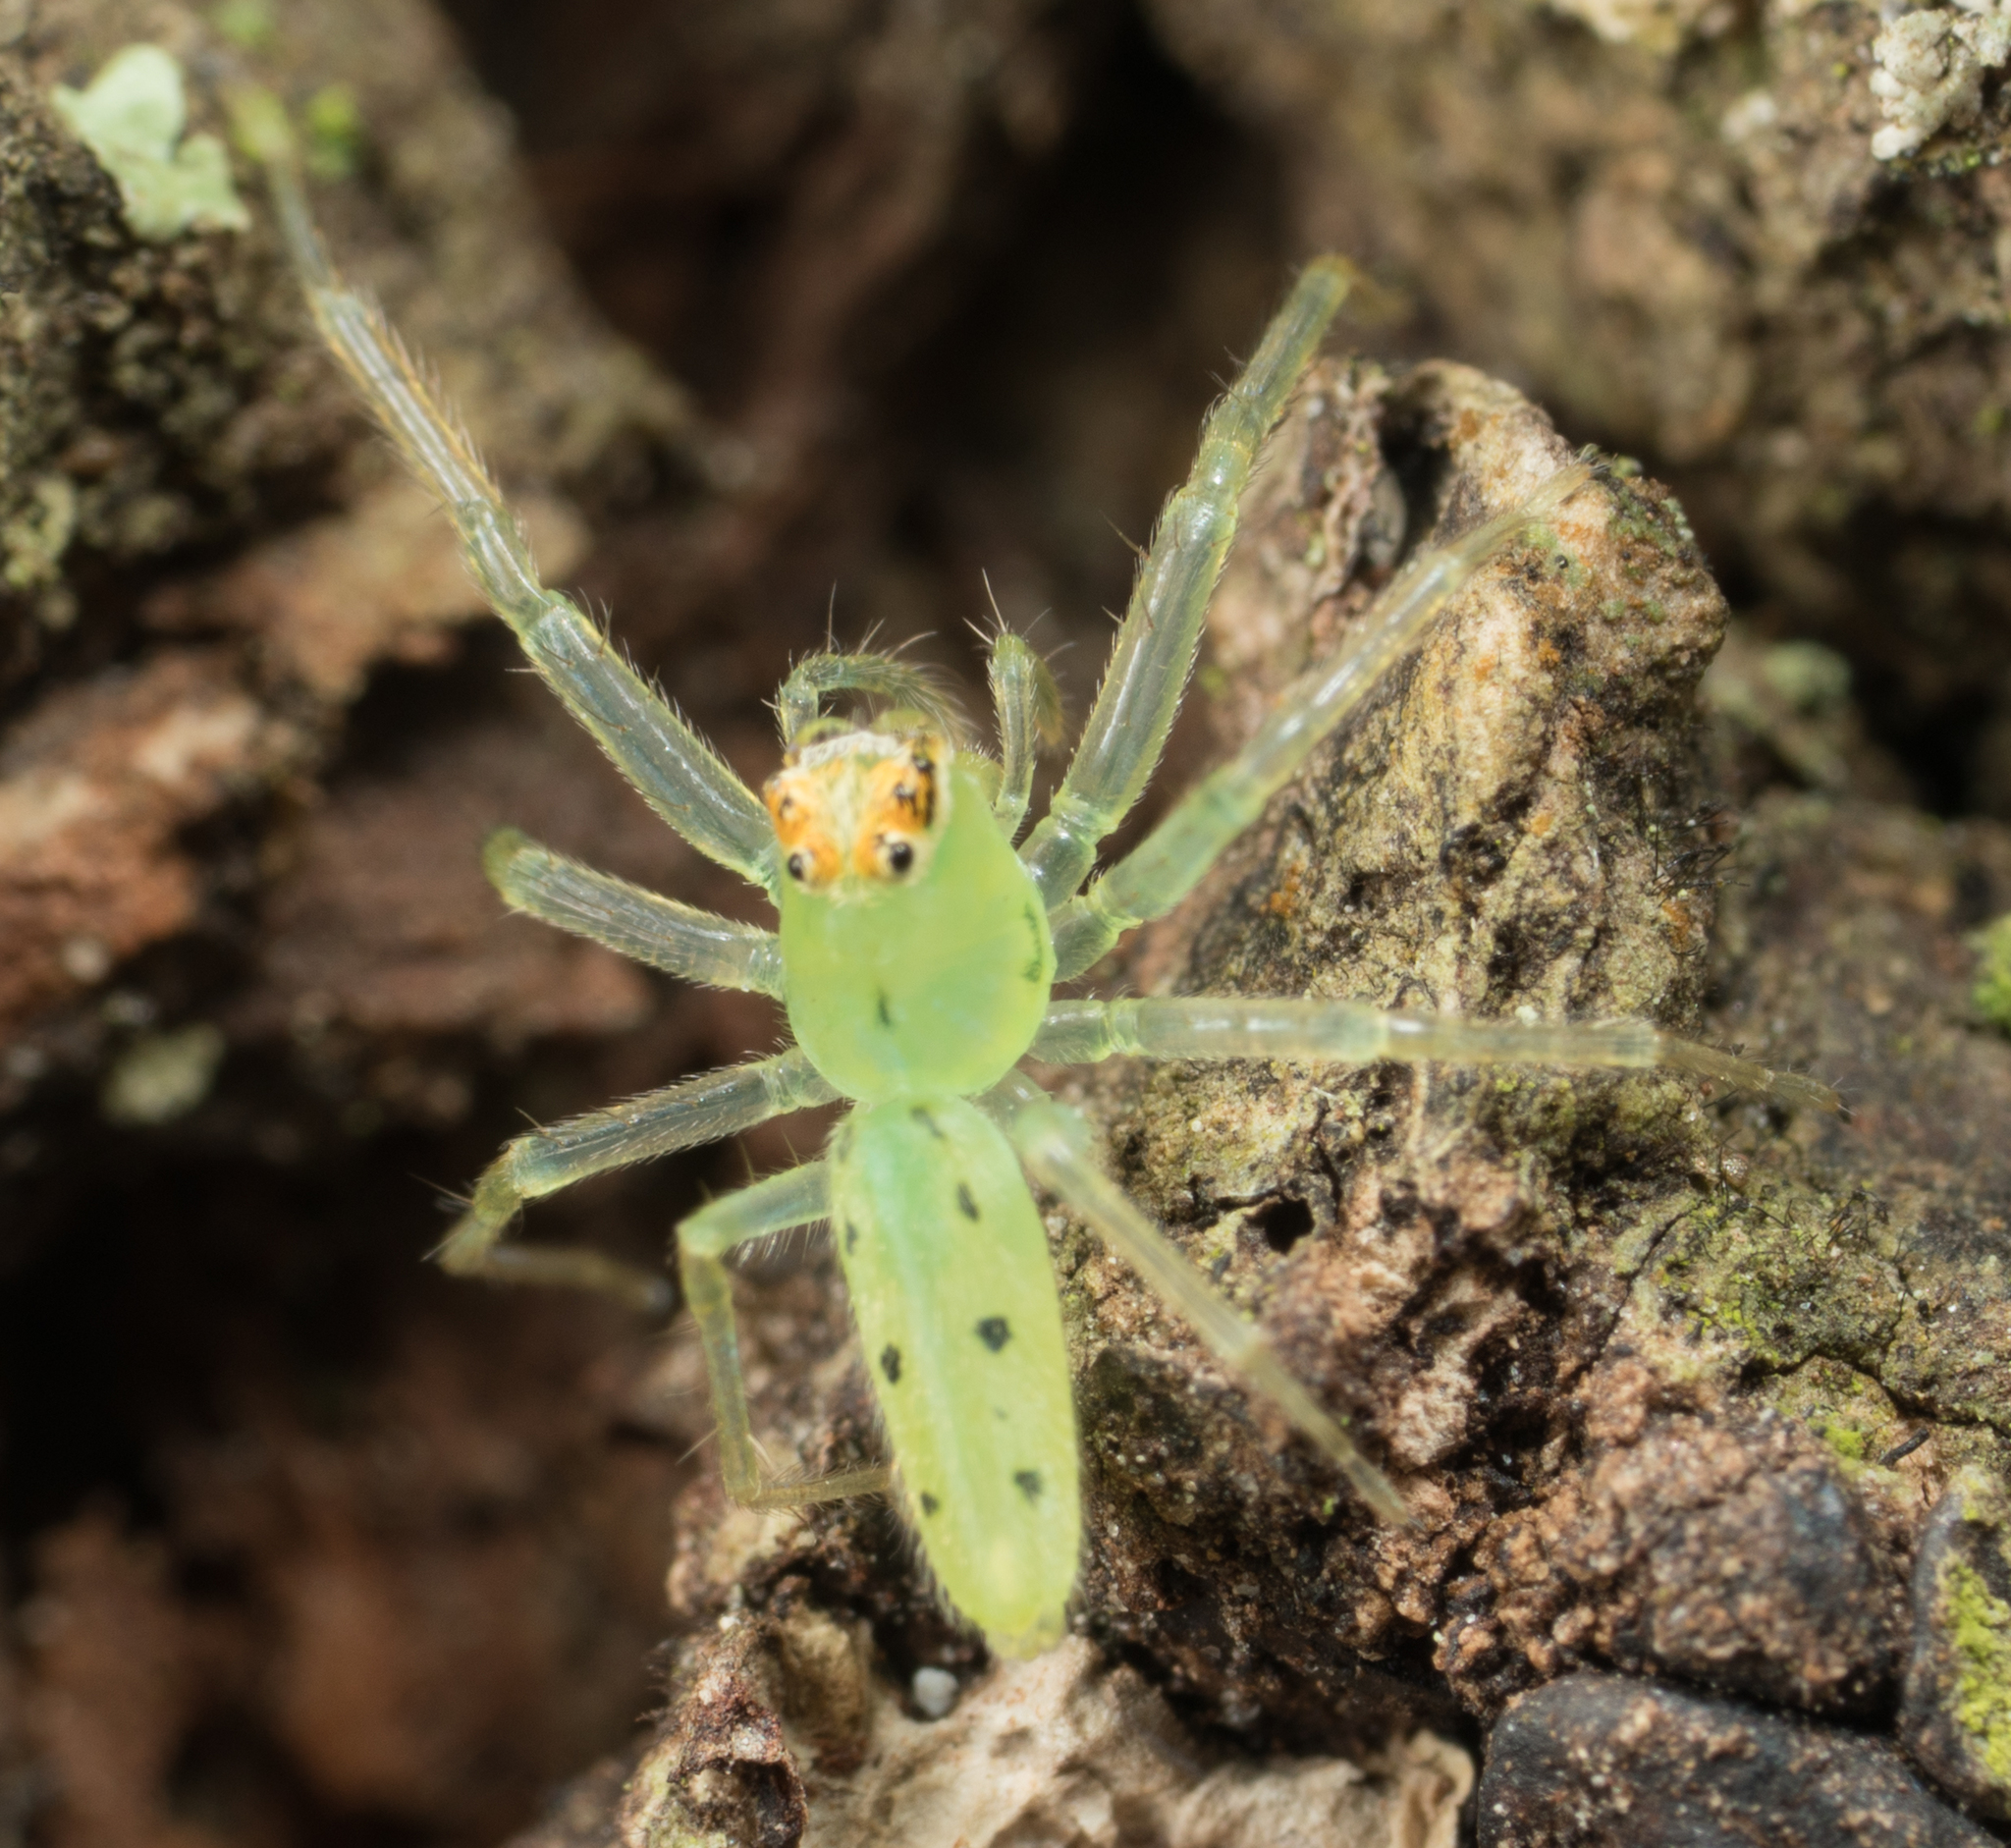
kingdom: Animalia
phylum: Arthropoda
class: Arachnida
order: Araneae
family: Salticidae
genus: Lyssomanes
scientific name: Lyssomanes viridis
